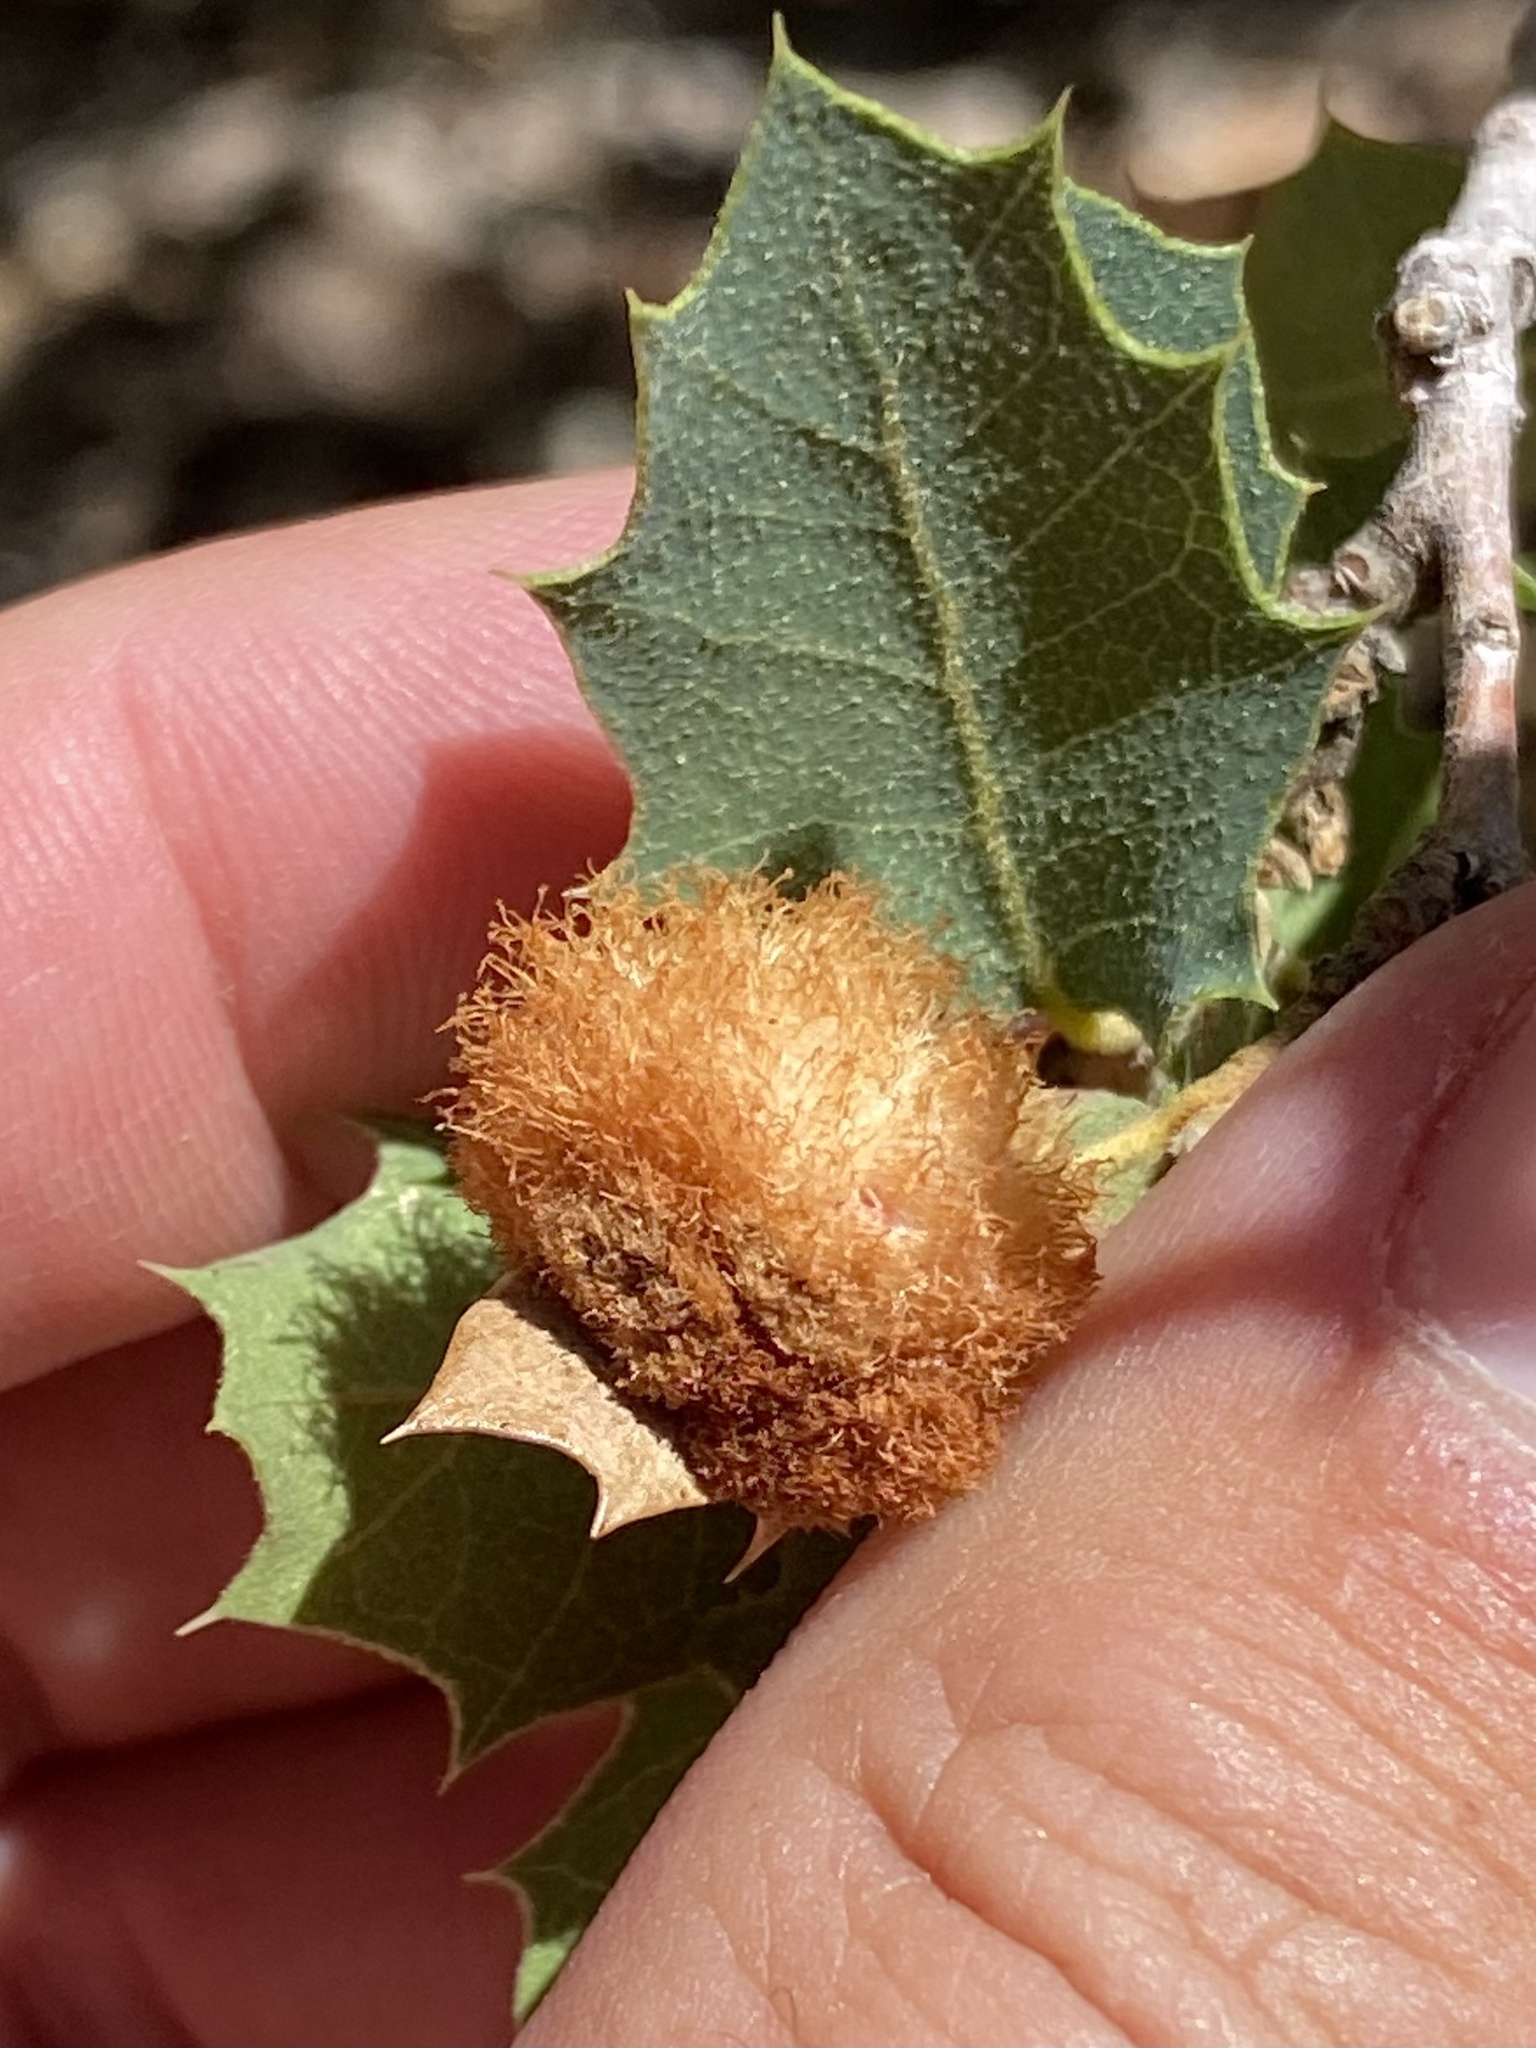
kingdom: Animalia
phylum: Arthropoda
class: Insecta
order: Hymenoptera
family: Cynipidae
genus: Andricus
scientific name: Andricus
